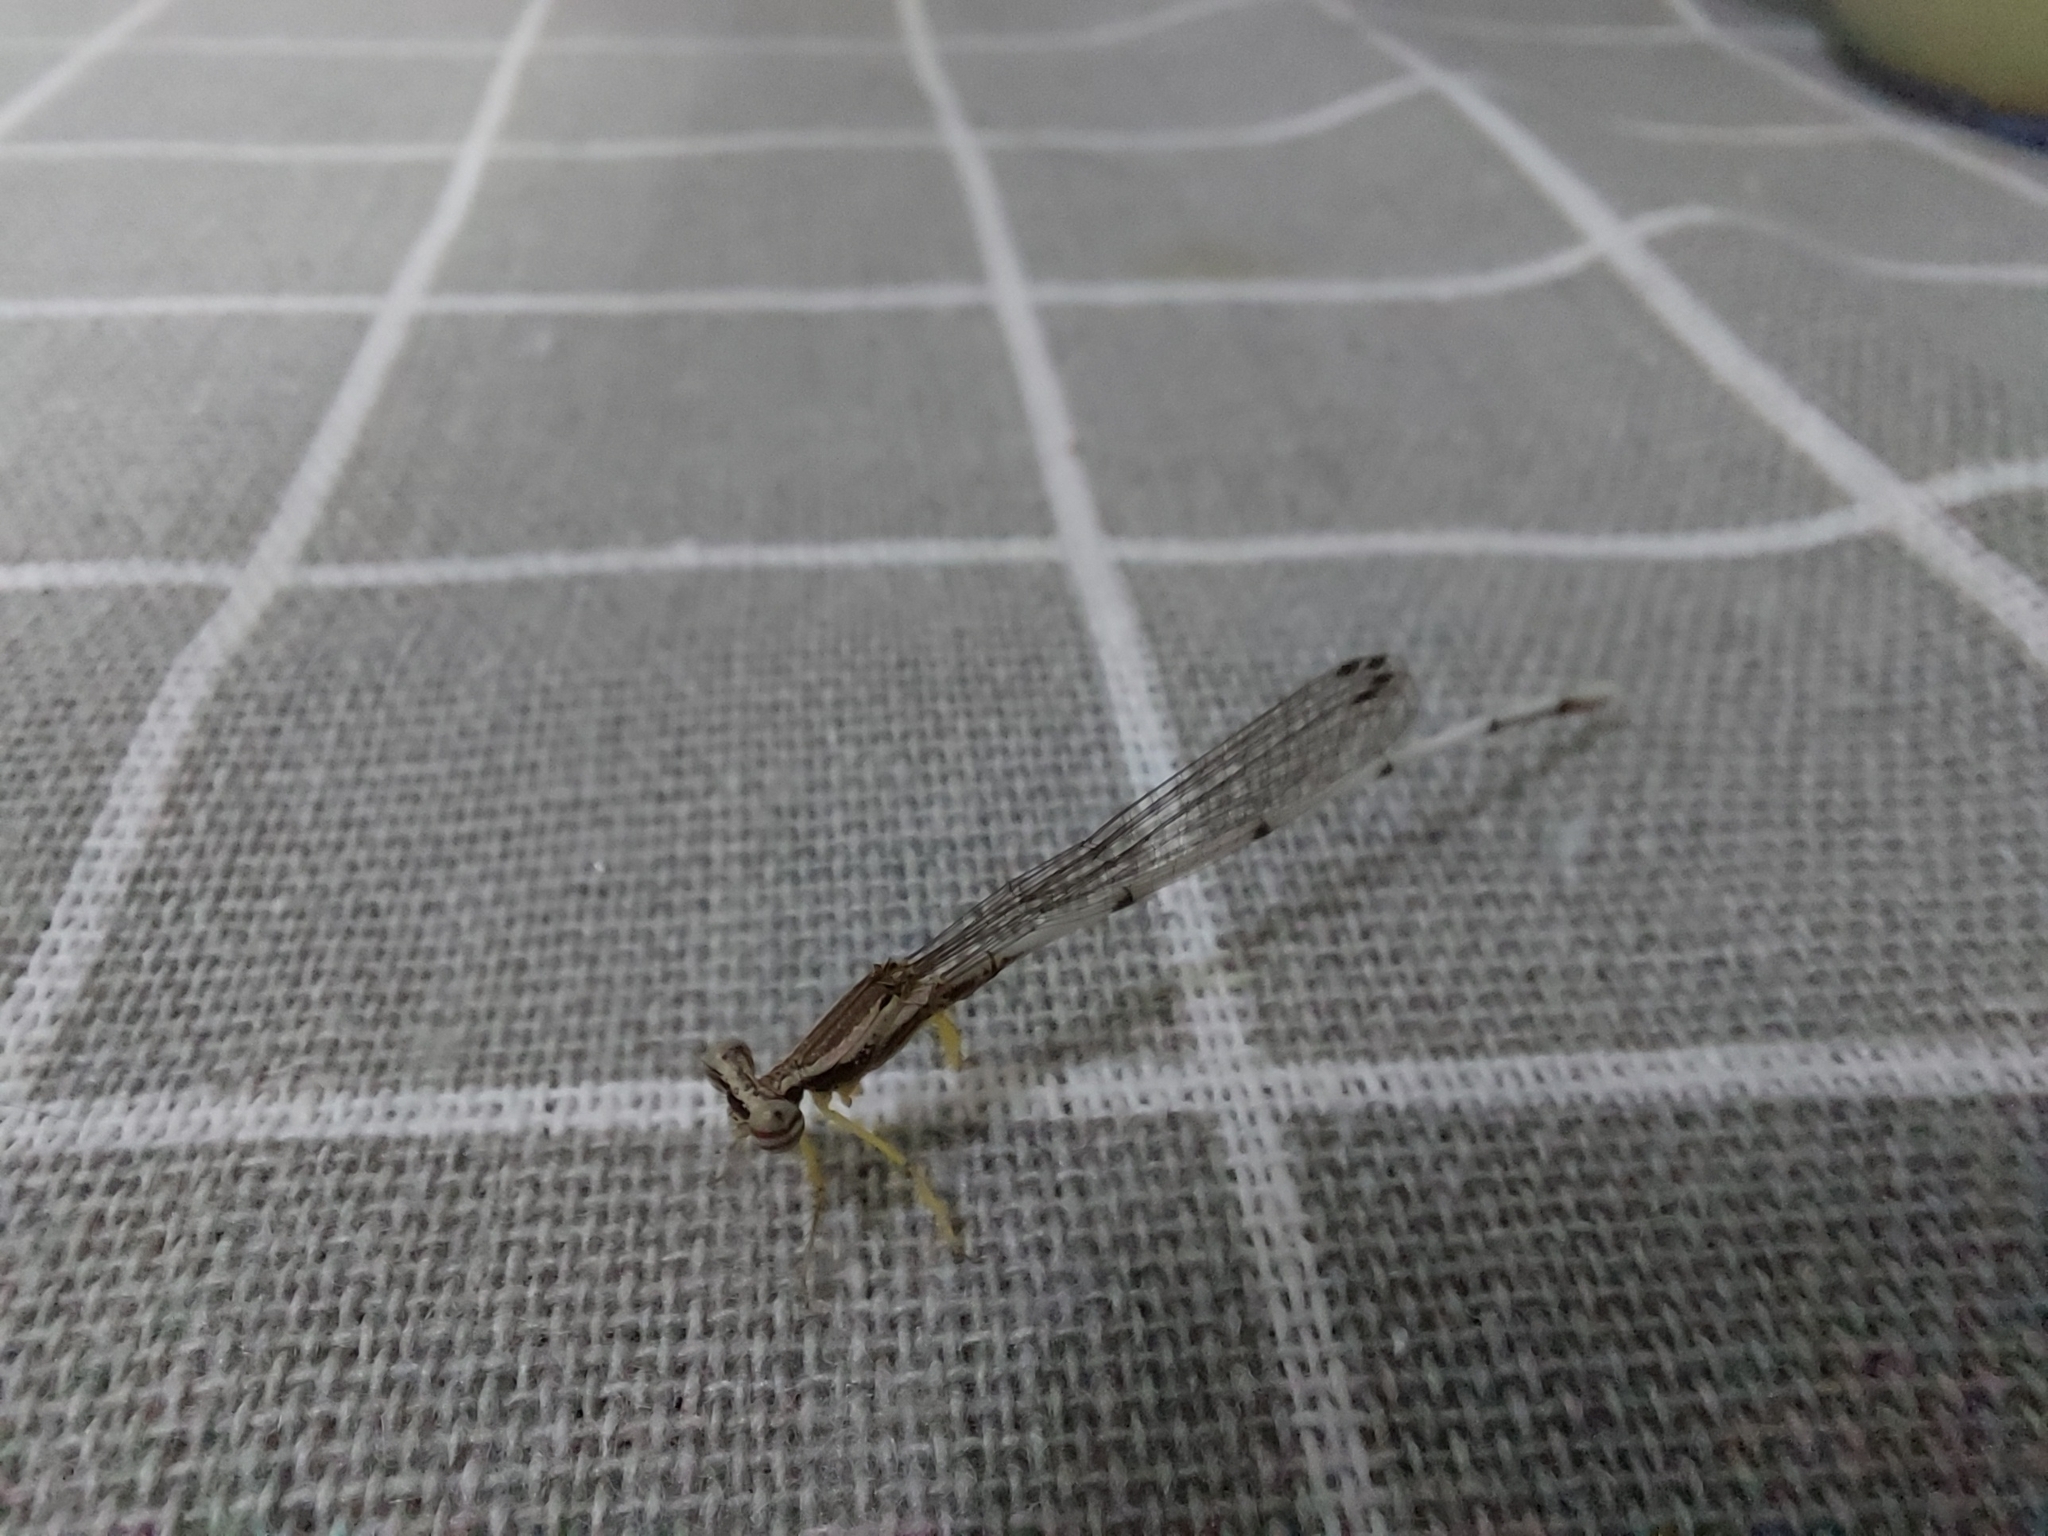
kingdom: Animalia
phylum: Arthropoda
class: Insecta
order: Odonata
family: Platycnemididae
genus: Copera
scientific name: Copera marginipes
